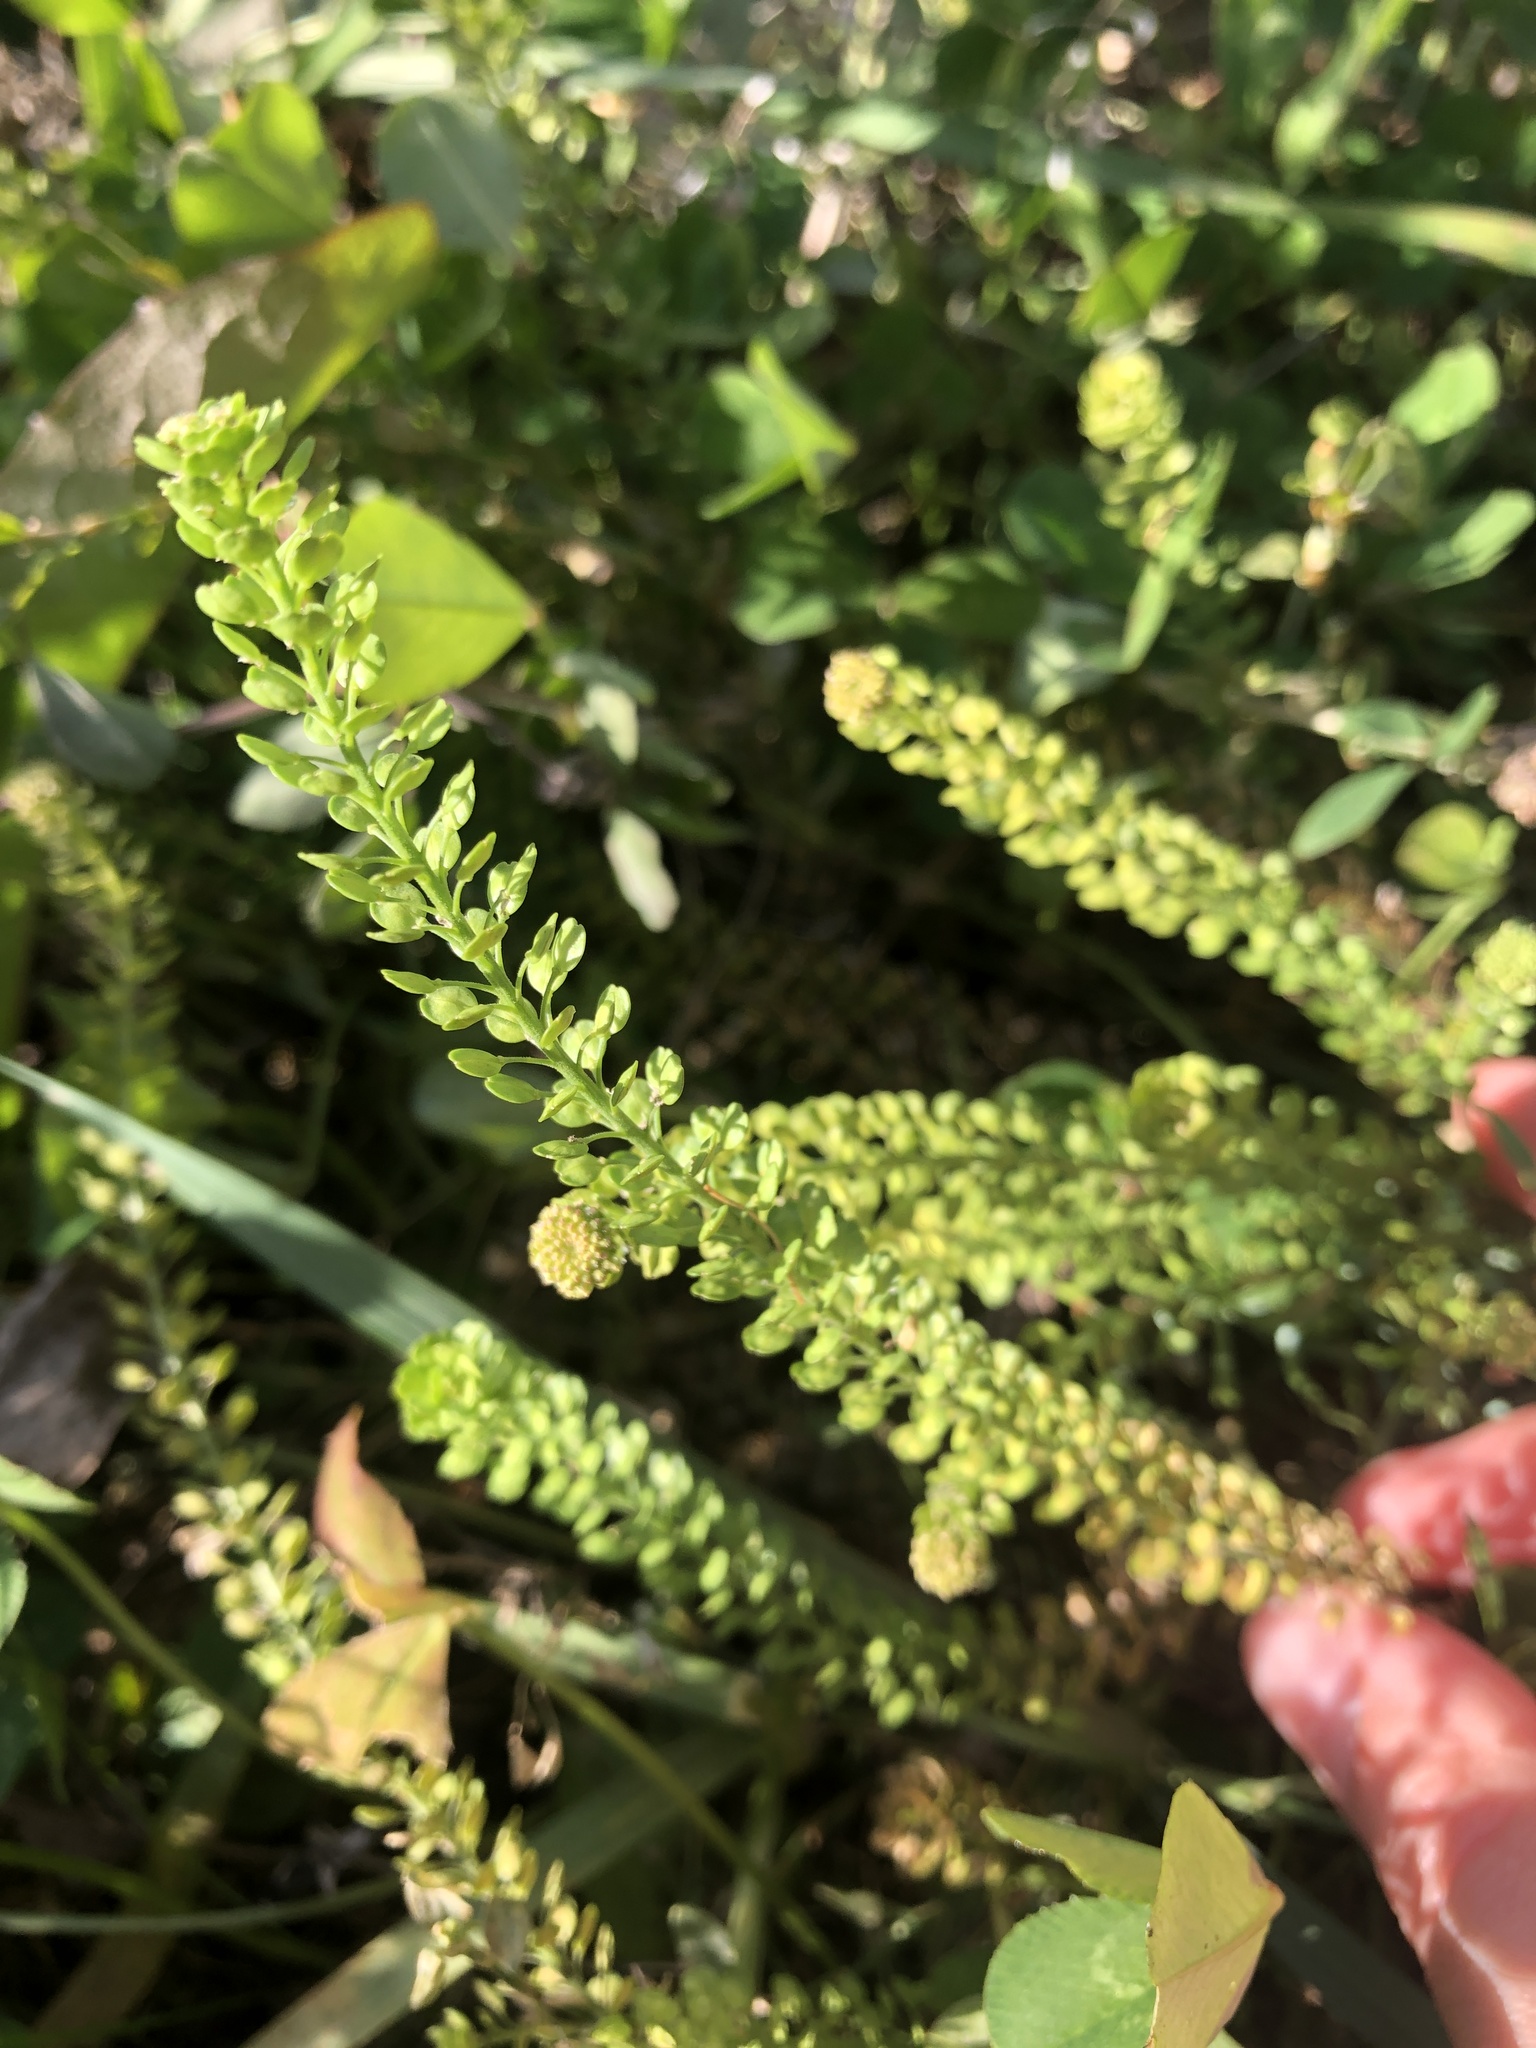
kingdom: Plantae
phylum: Tracheophyta
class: Magnoliopsida
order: Brassicales
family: Brassicaceae
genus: Lepidium
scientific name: Lepidium densiflorum
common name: Miner's pepperwort
